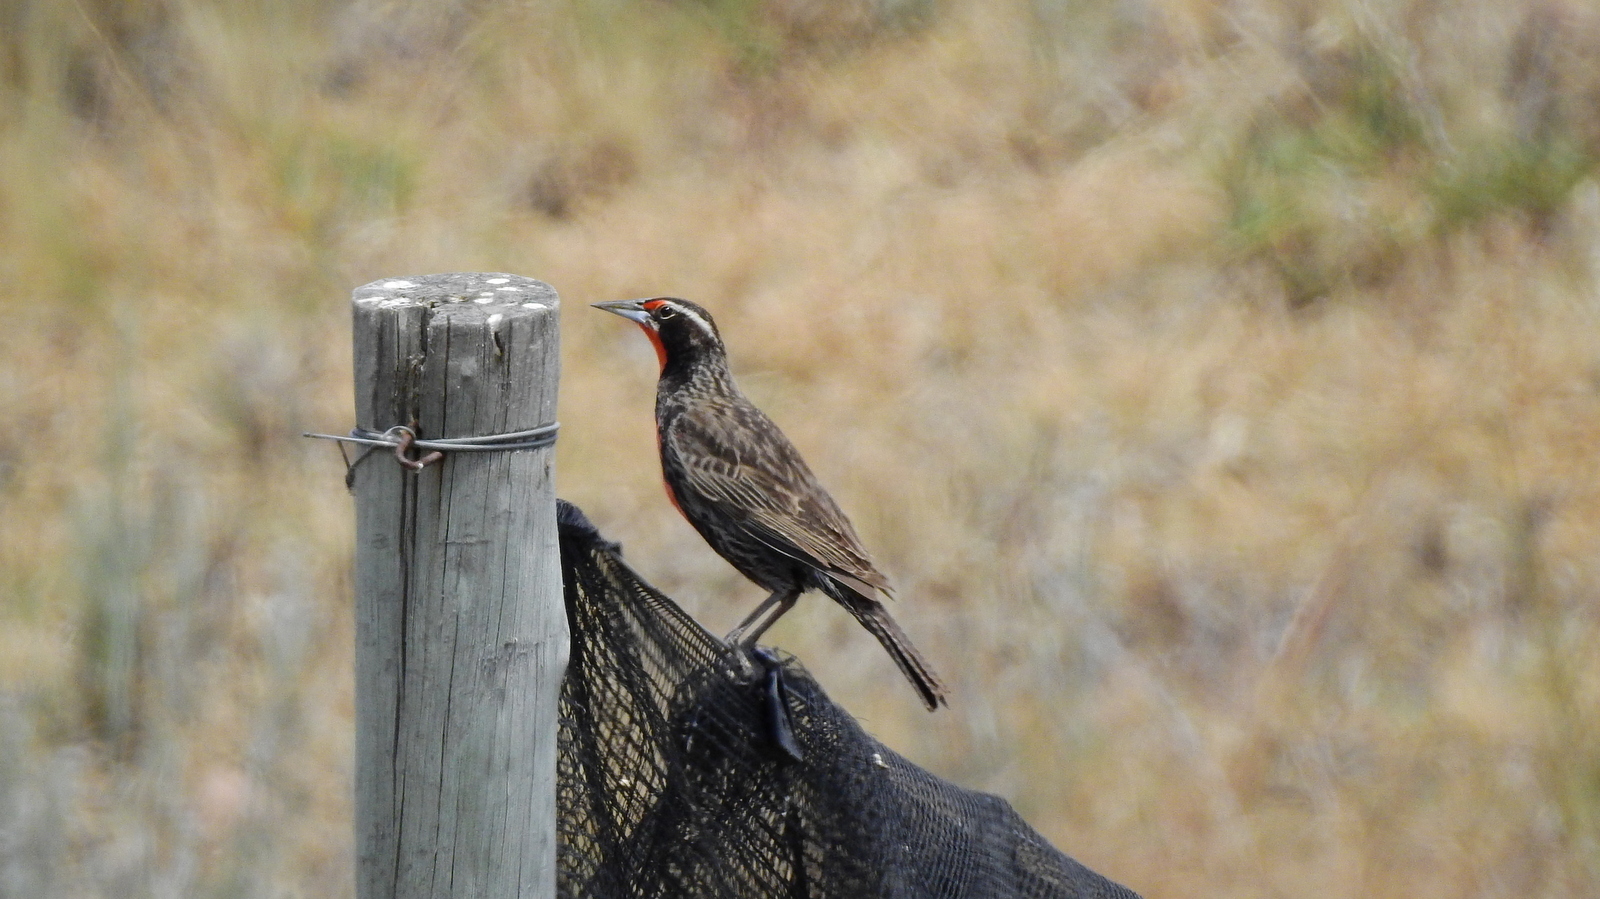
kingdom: Animalia
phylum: Chordata
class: Aves
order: Passeriformes
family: Icteridae
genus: Sturnella
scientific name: Sturnella loyca
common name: Long-tailed meadowlark
